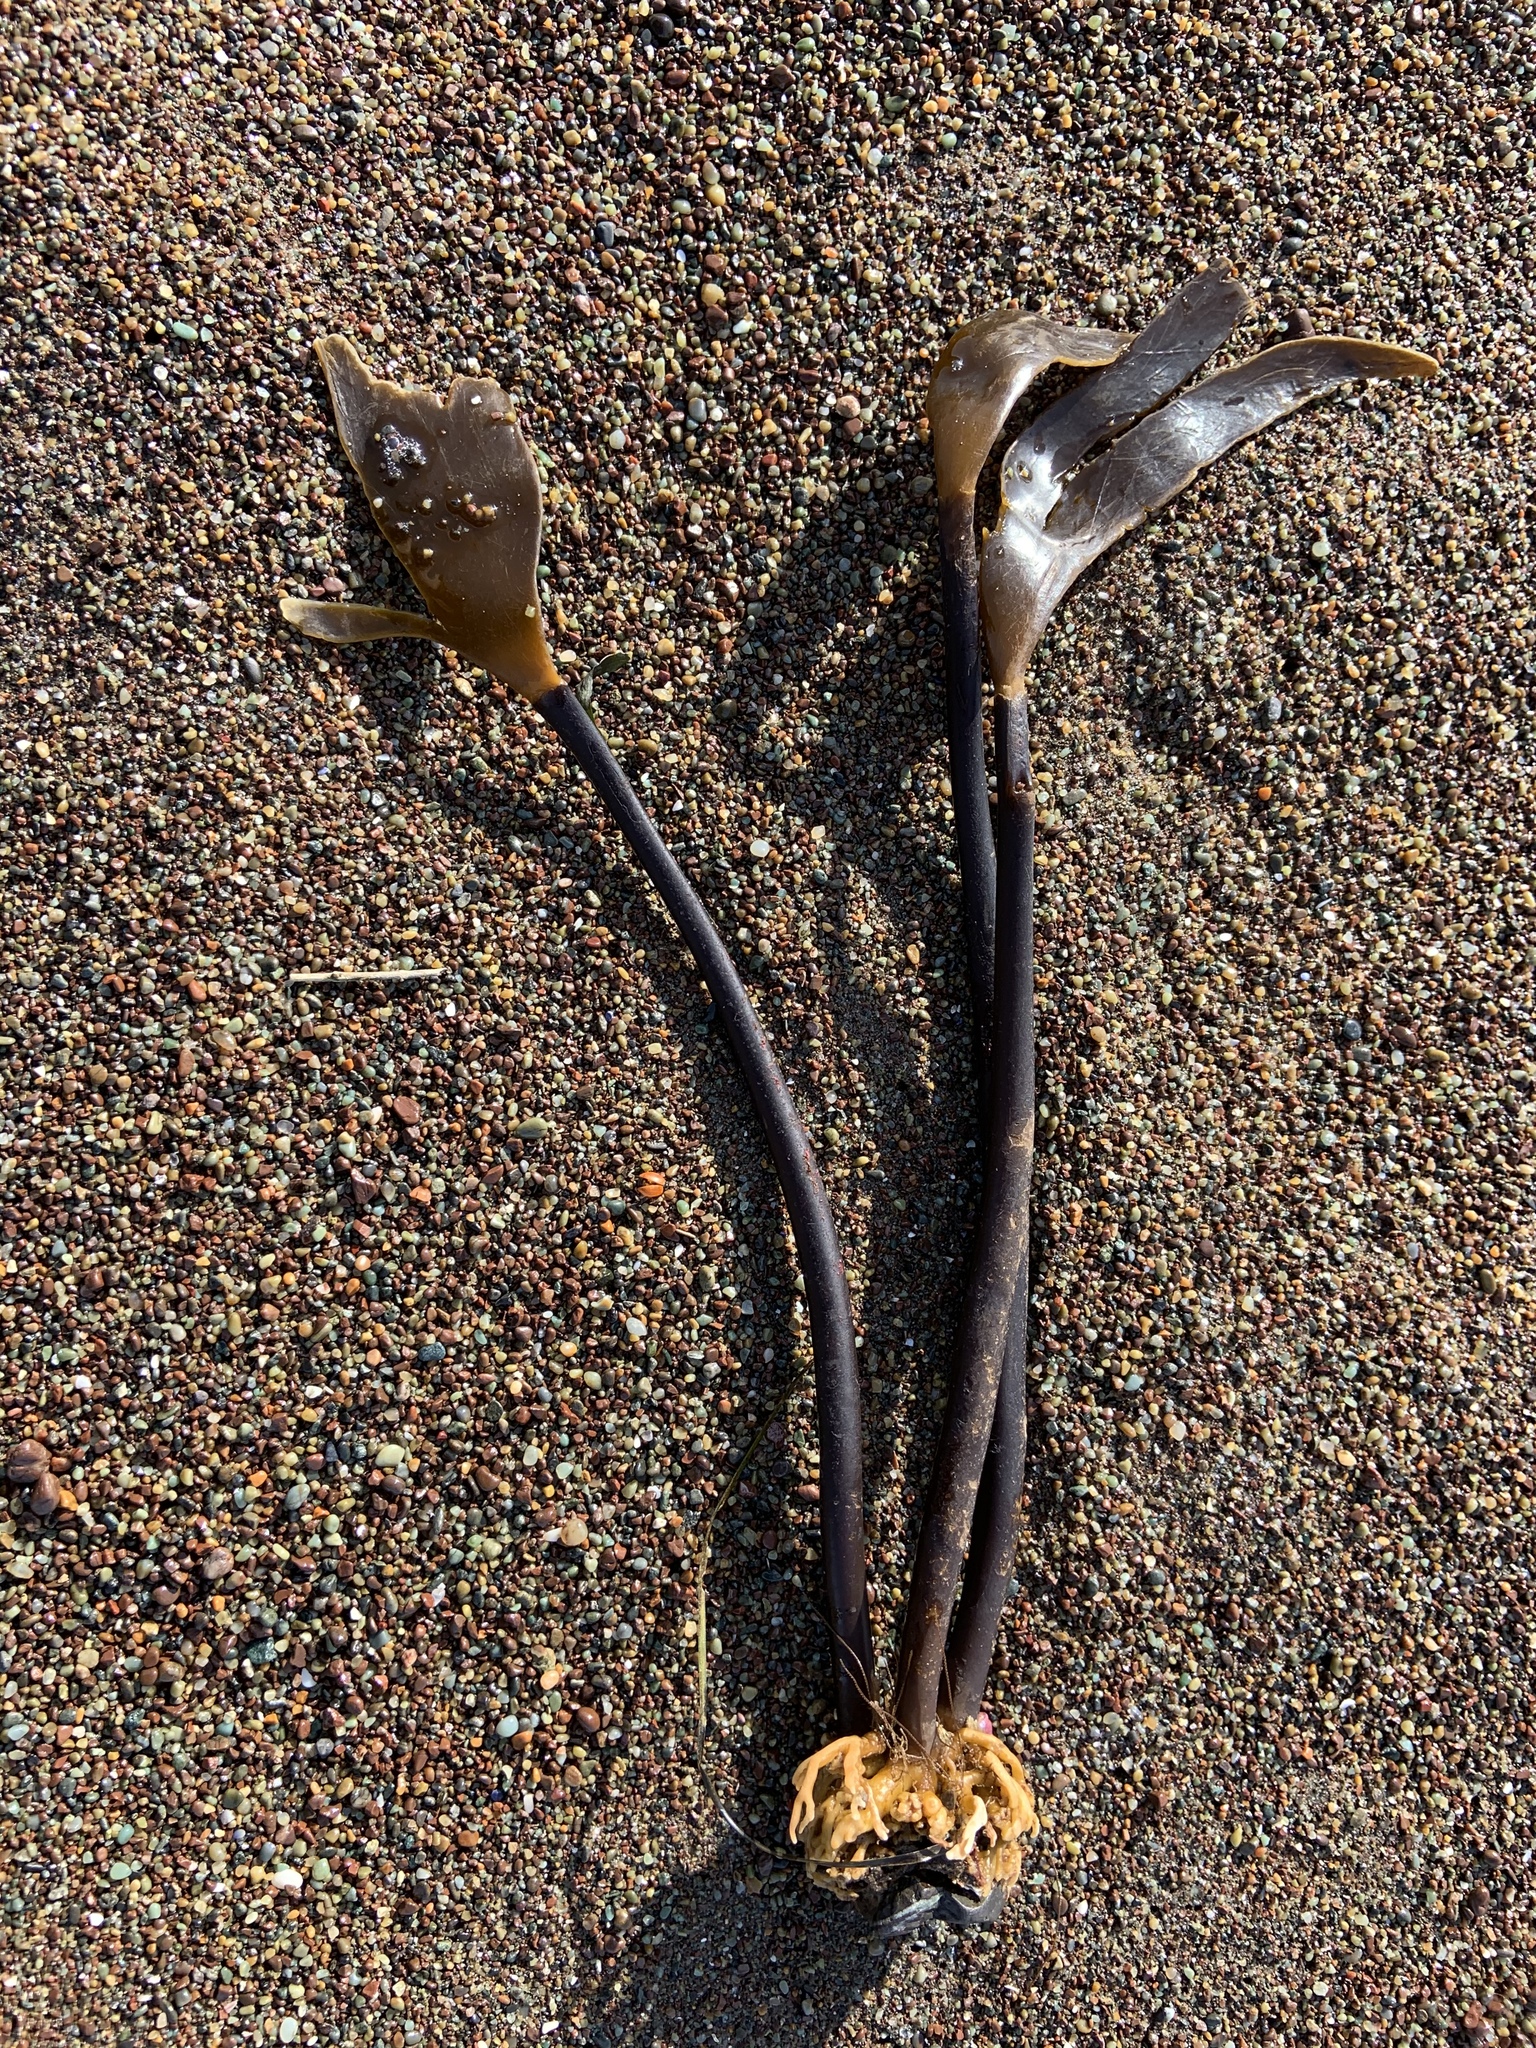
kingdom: Chromista
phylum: Ochrophyta
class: Phaeophyceae
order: Laminariales
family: Laminariaceae
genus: Laminaria
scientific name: Laminaria setchellii
